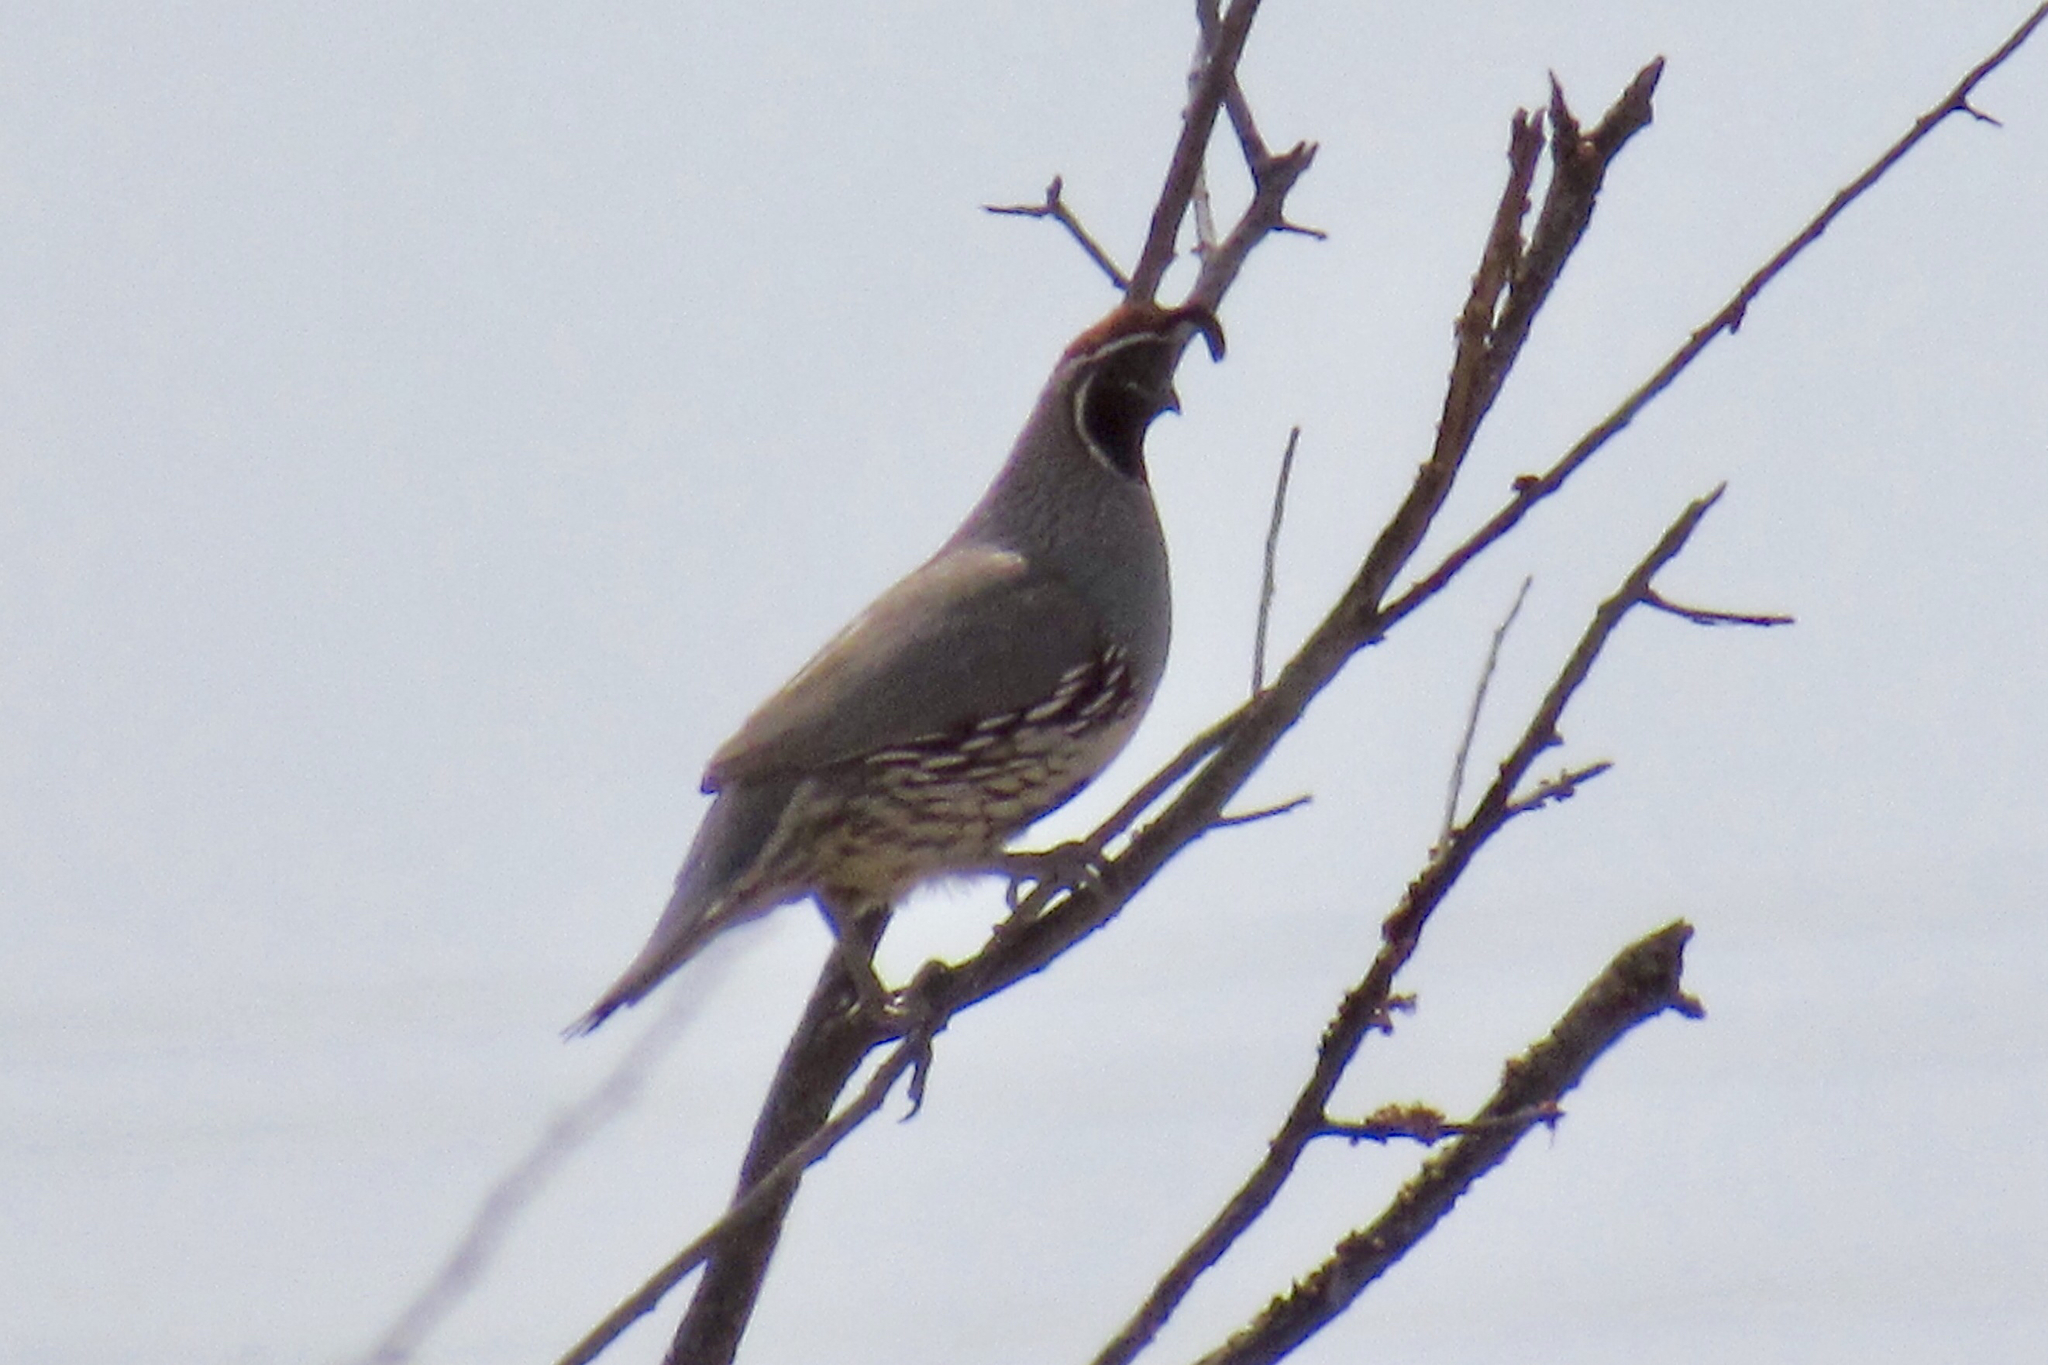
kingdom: Animalia
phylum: Chordata
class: Aves
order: Galliformes
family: Odontophoridae
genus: Callipepla
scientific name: Callipepla gambelii
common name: Gambel's quail
